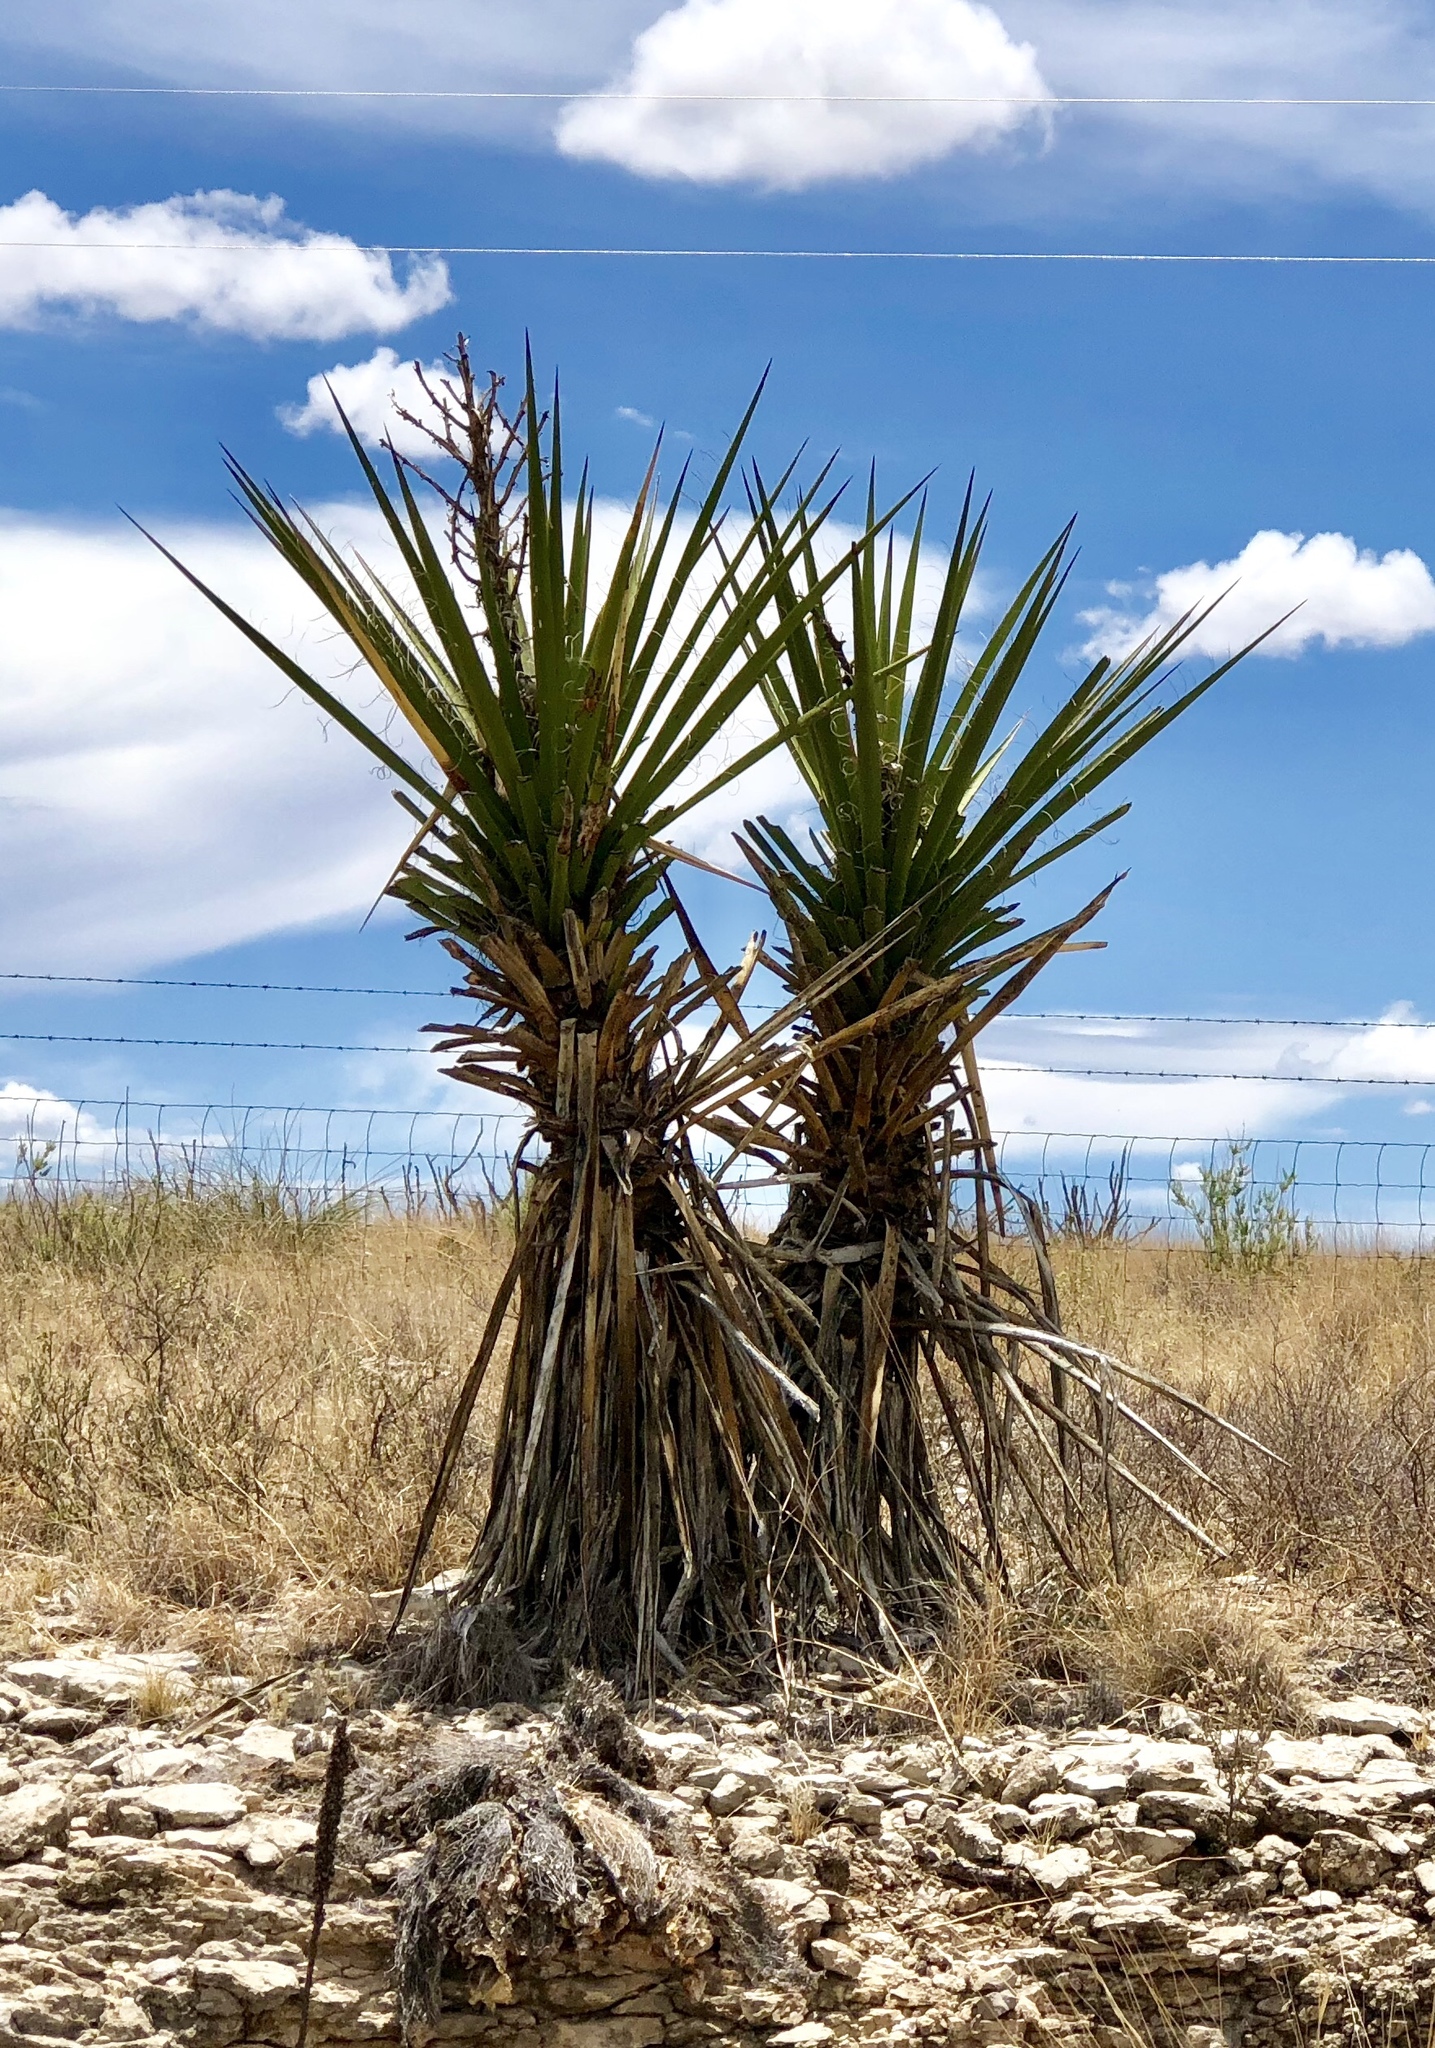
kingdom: Plantae
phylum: Tracheophyta
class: Liliopsida
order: Asparagales
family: Asparagaceae
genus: Yucca
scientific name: Yucca treculiana
